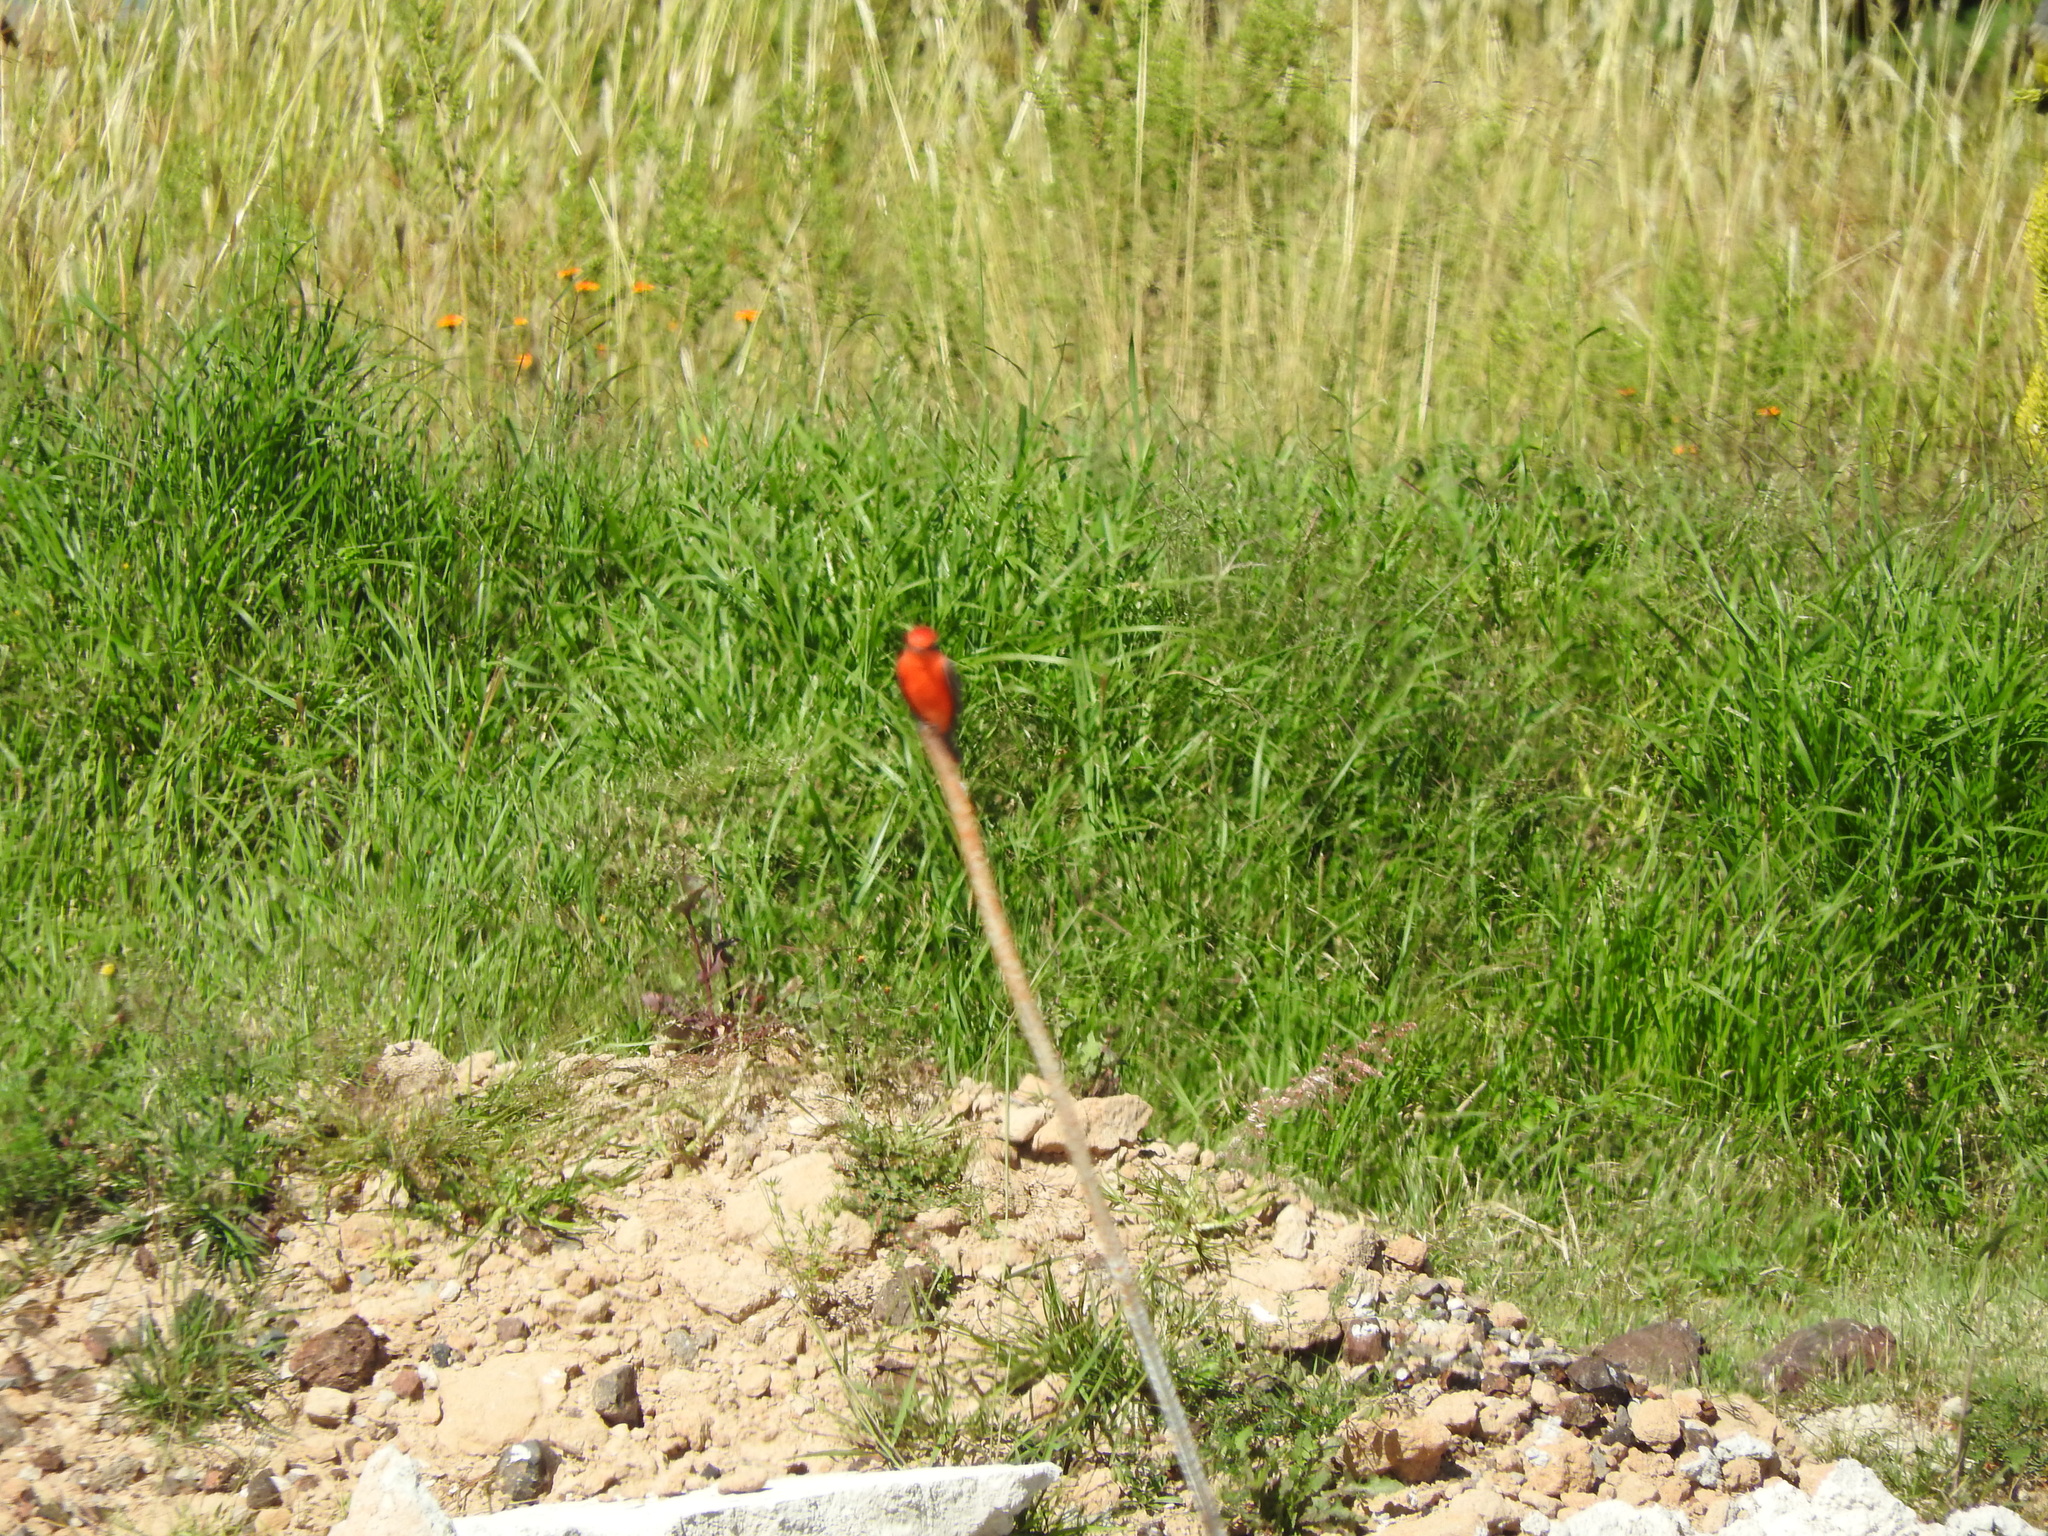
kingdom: Animalia
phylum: Chordata
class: Aves
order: Passeriformes
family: Tyrannidae
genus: Pyrocephalus
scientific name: Pyrocephalus rubinus
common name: Vermilion flycatcher
